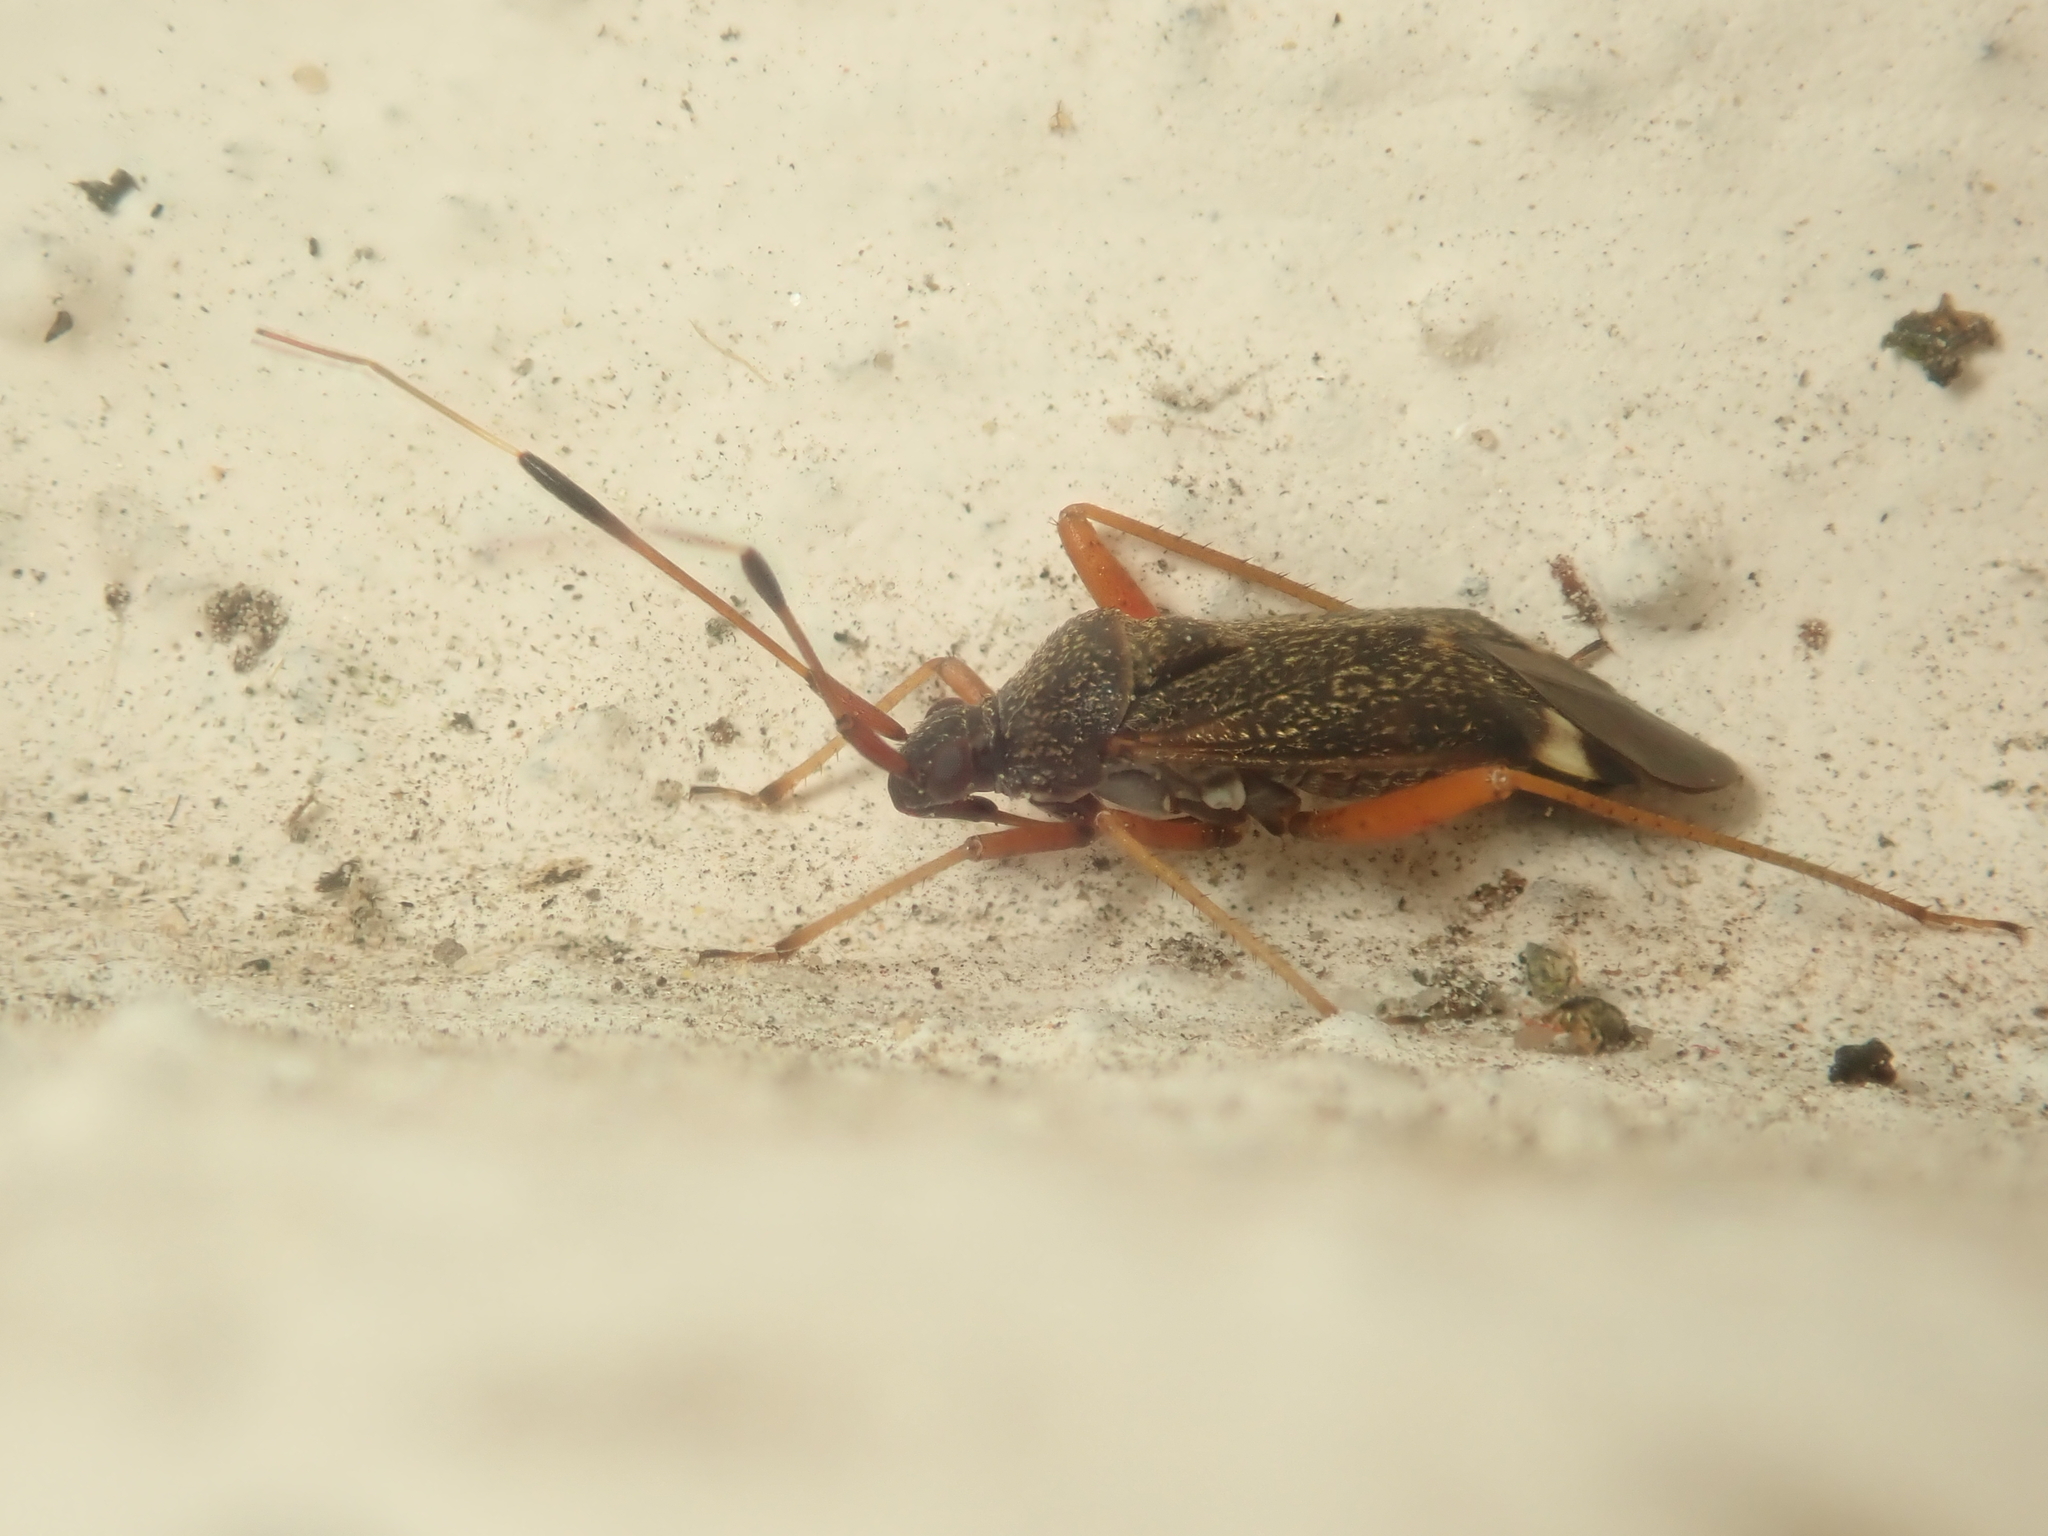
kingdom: Animalia
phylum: Arthropoda
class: Insecta
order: Hemiptera
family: Miridae
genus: Closterotomus
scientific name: Closterotomus biclavatus
